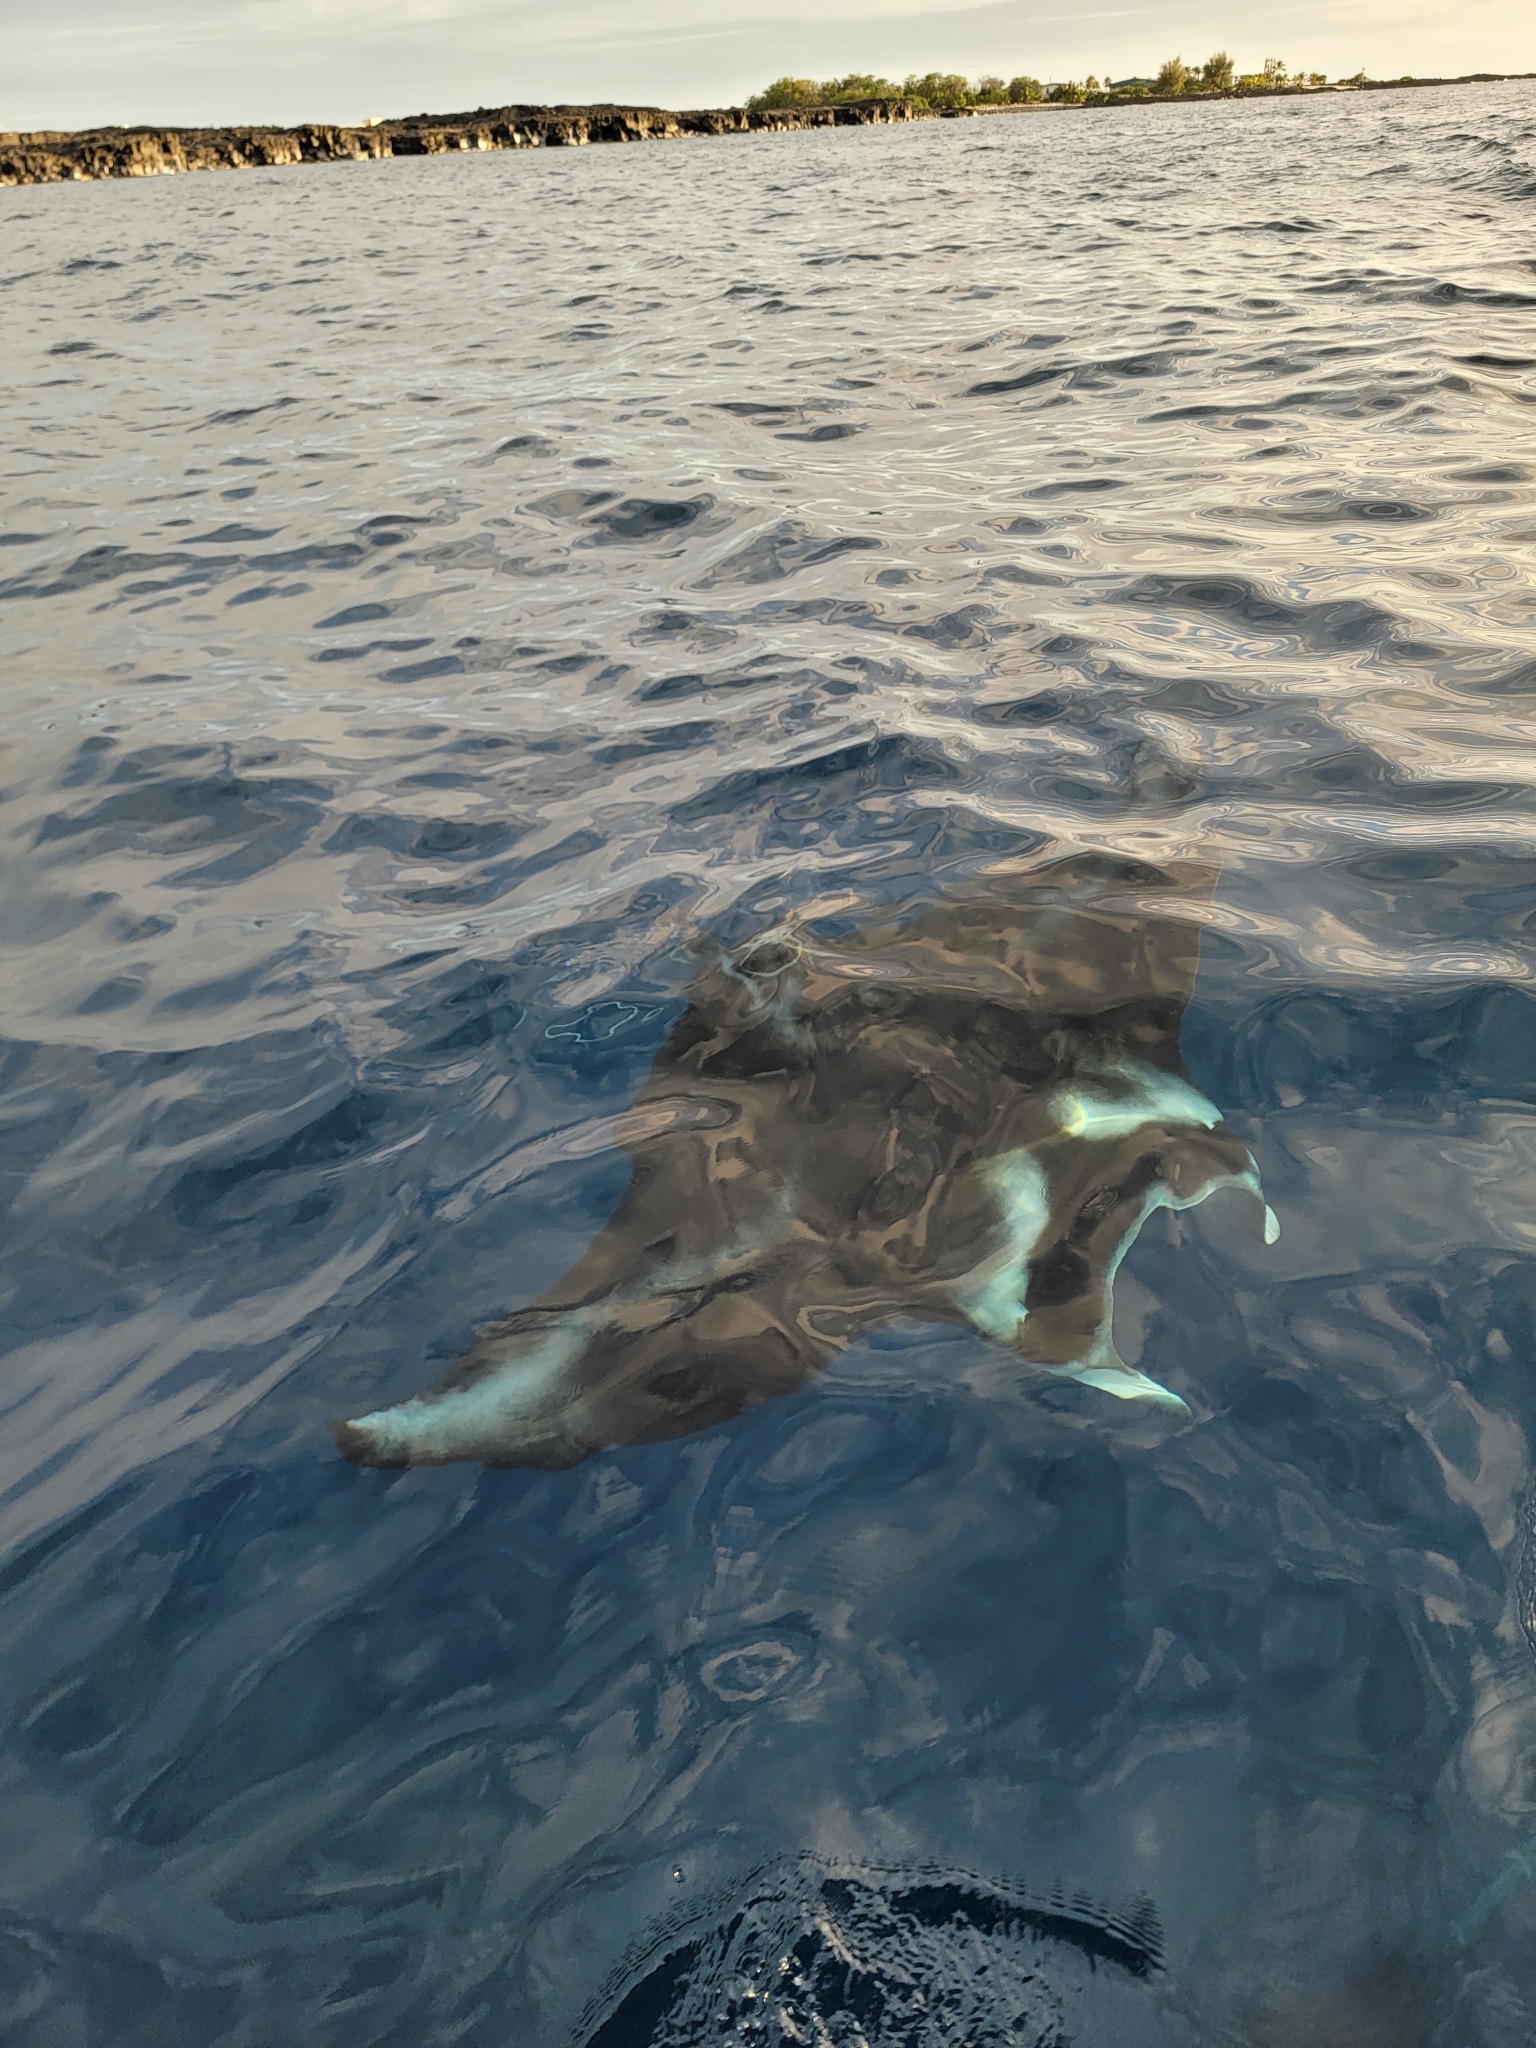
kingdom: Animalia
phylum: Chordata
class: Elasmobranchii
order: Myliobatiformes
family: Myliobatidae
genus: Mobula
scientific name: Mobula alfredi
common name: Reef manta ray
